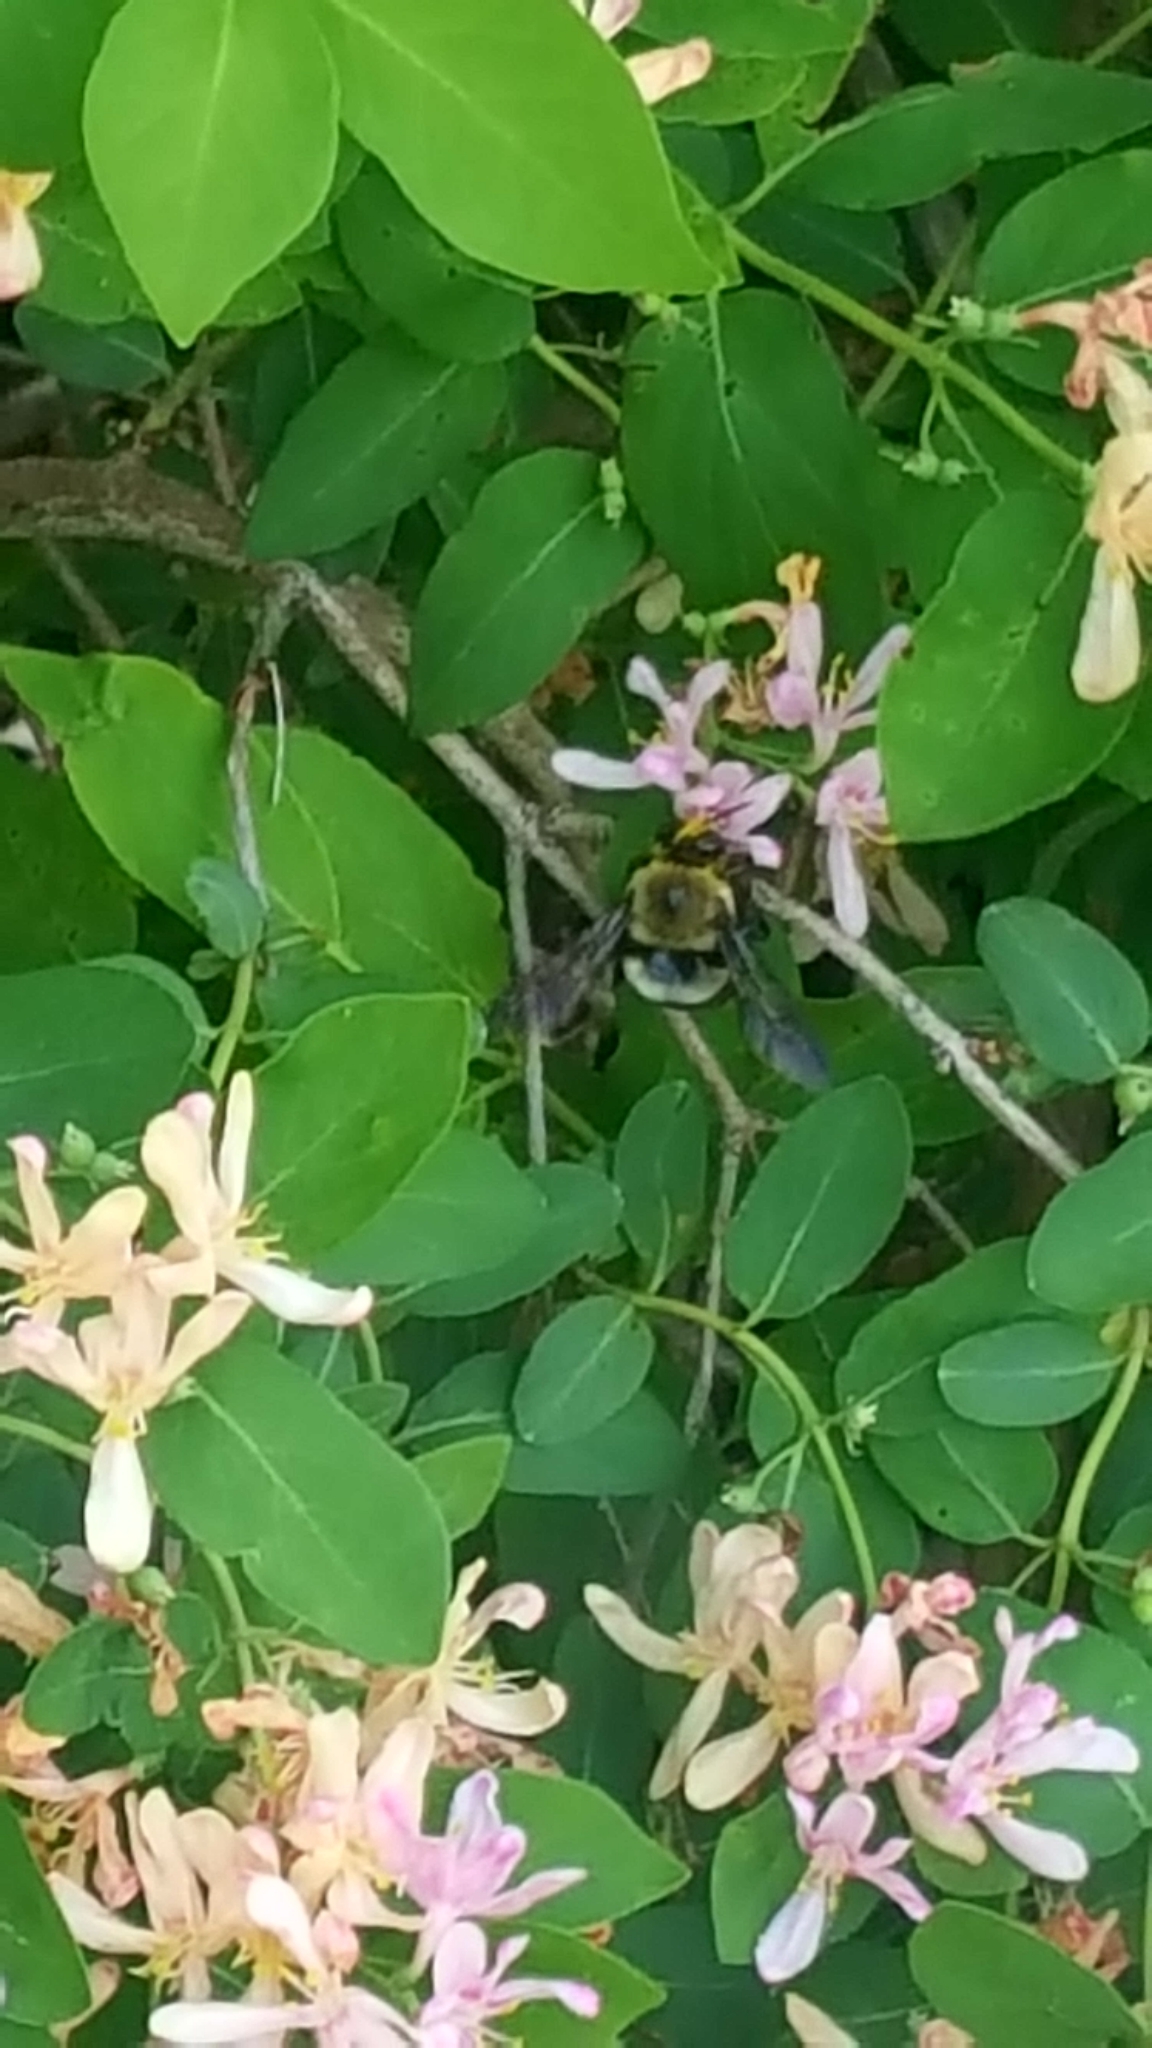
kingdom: Animalia
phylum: Arthropoda
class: Insecta
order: Hymenoptera
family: Apidae
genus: Xylocopa
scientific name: Xylocopa virginica
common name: Carpenter bee
